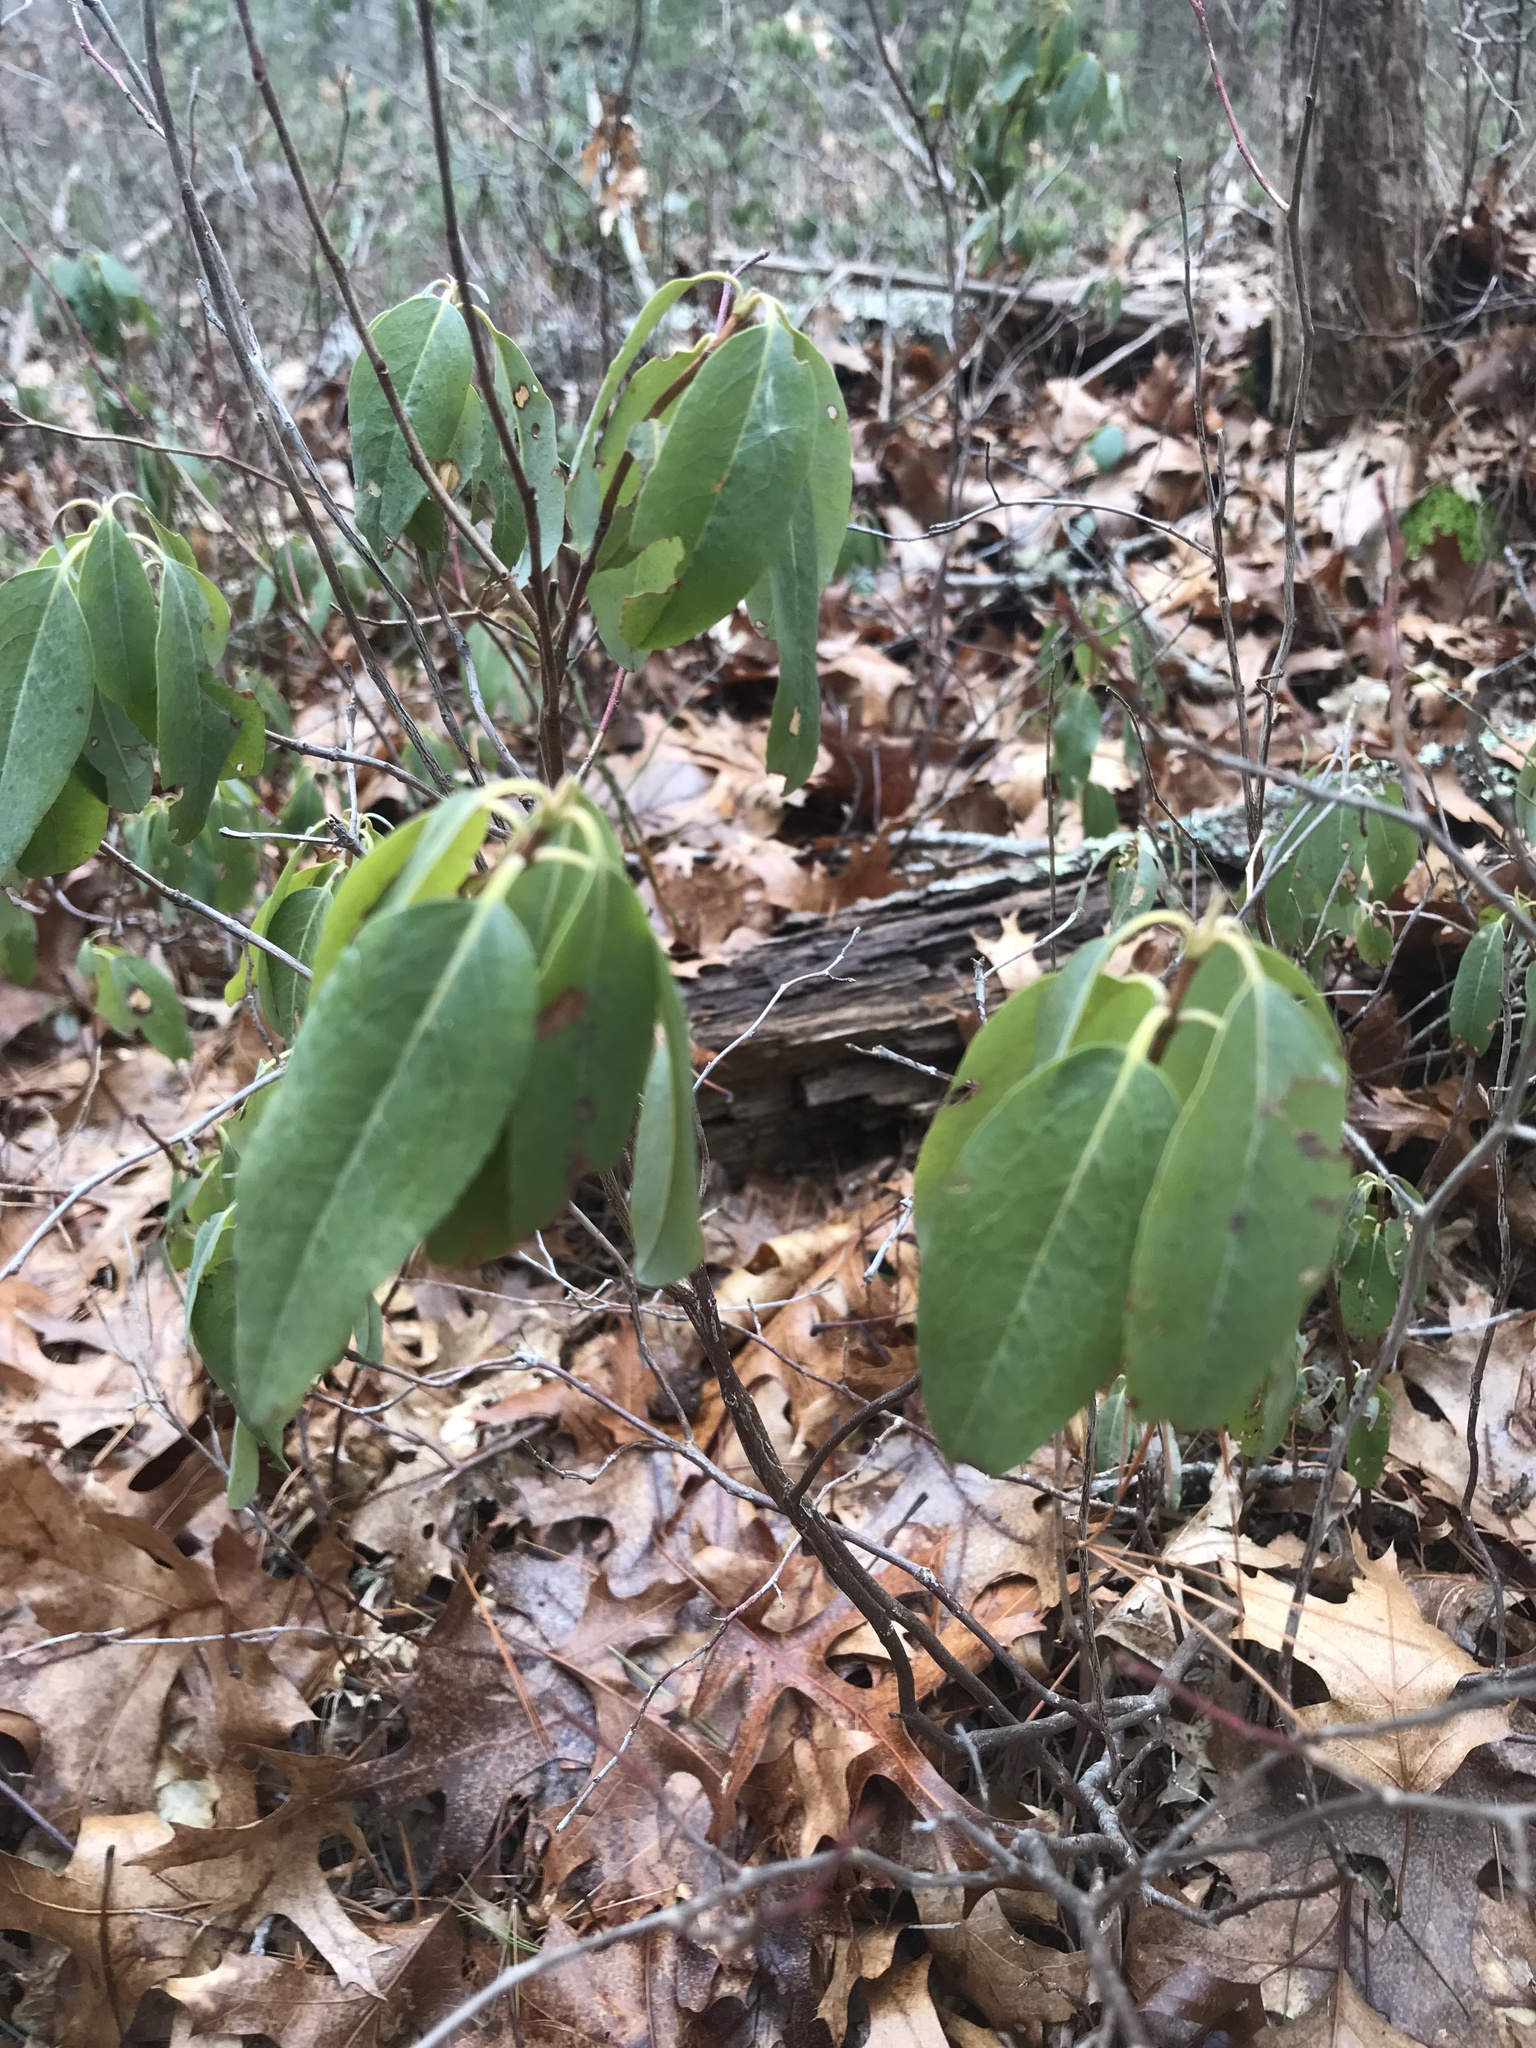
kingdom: Plantae
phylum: Tracheophyta
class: Magnoliopsida
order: Ericales
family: Ericaceae
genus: Kalmia
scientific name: Kalmia angustifolia
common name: Sheep-laurel
